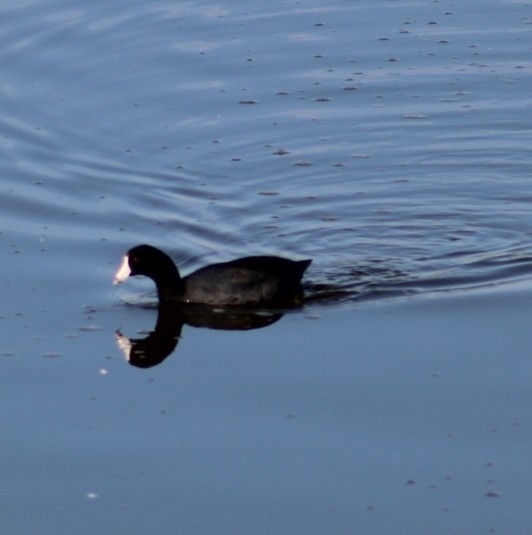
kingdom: Animalia
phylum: Chordata
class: Aves
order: Gruiformes
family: Rallidae
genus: Fulica
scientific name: Fulica americana
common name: American coot
